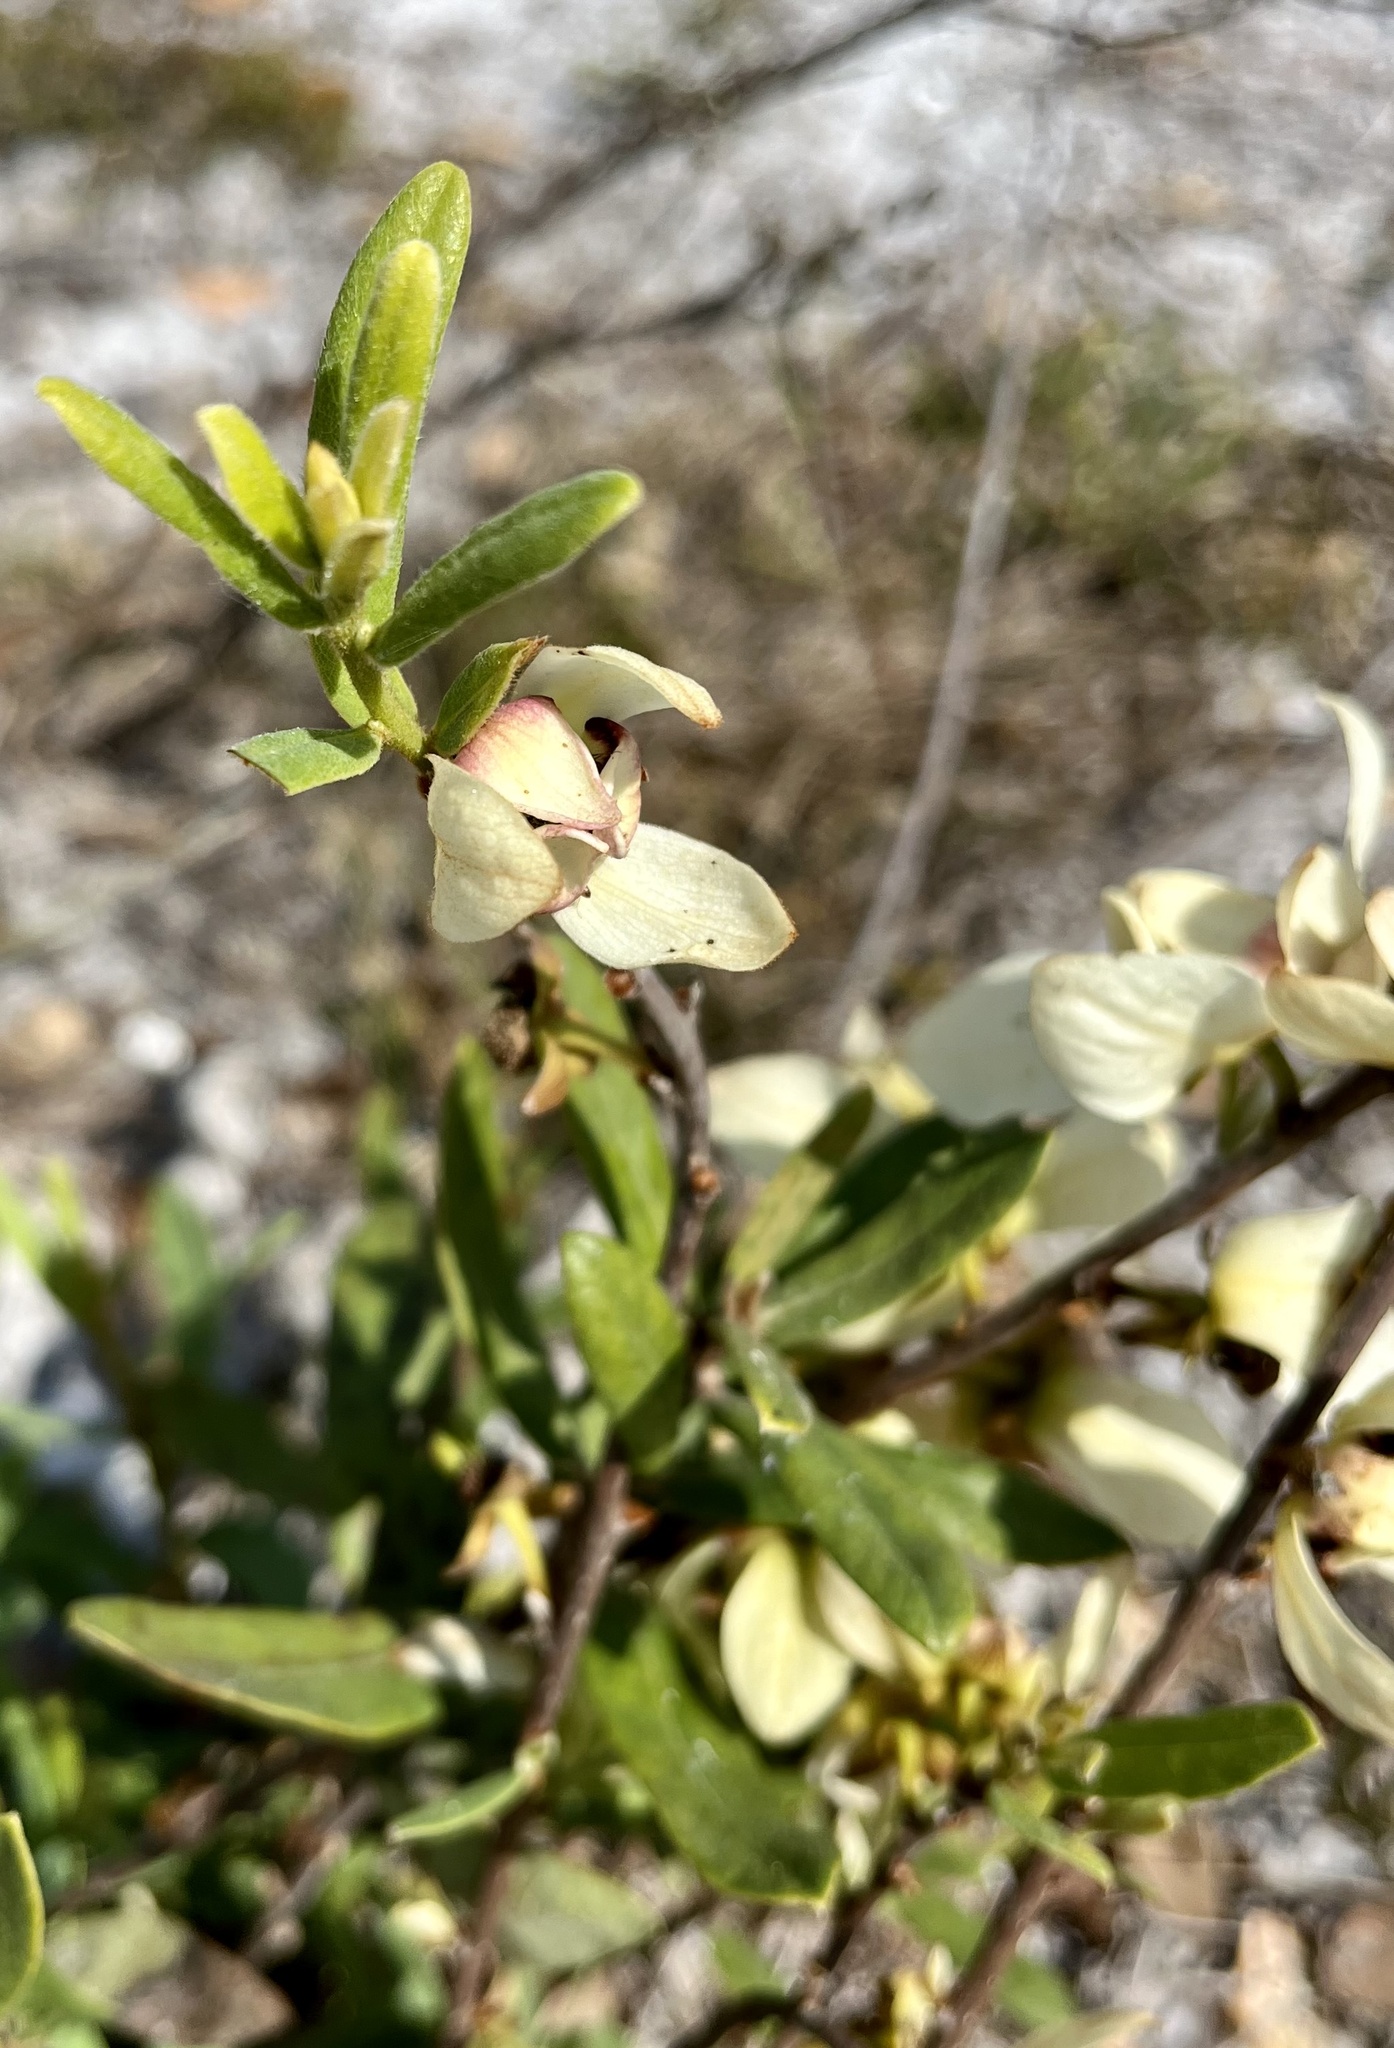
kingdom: Plantae
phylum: Tracheophyta
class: Magnoliopsida
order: Magnoliales
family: Annonaceae
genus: Asimina
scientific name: Asimina reticulata
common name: Flag pawpaw
